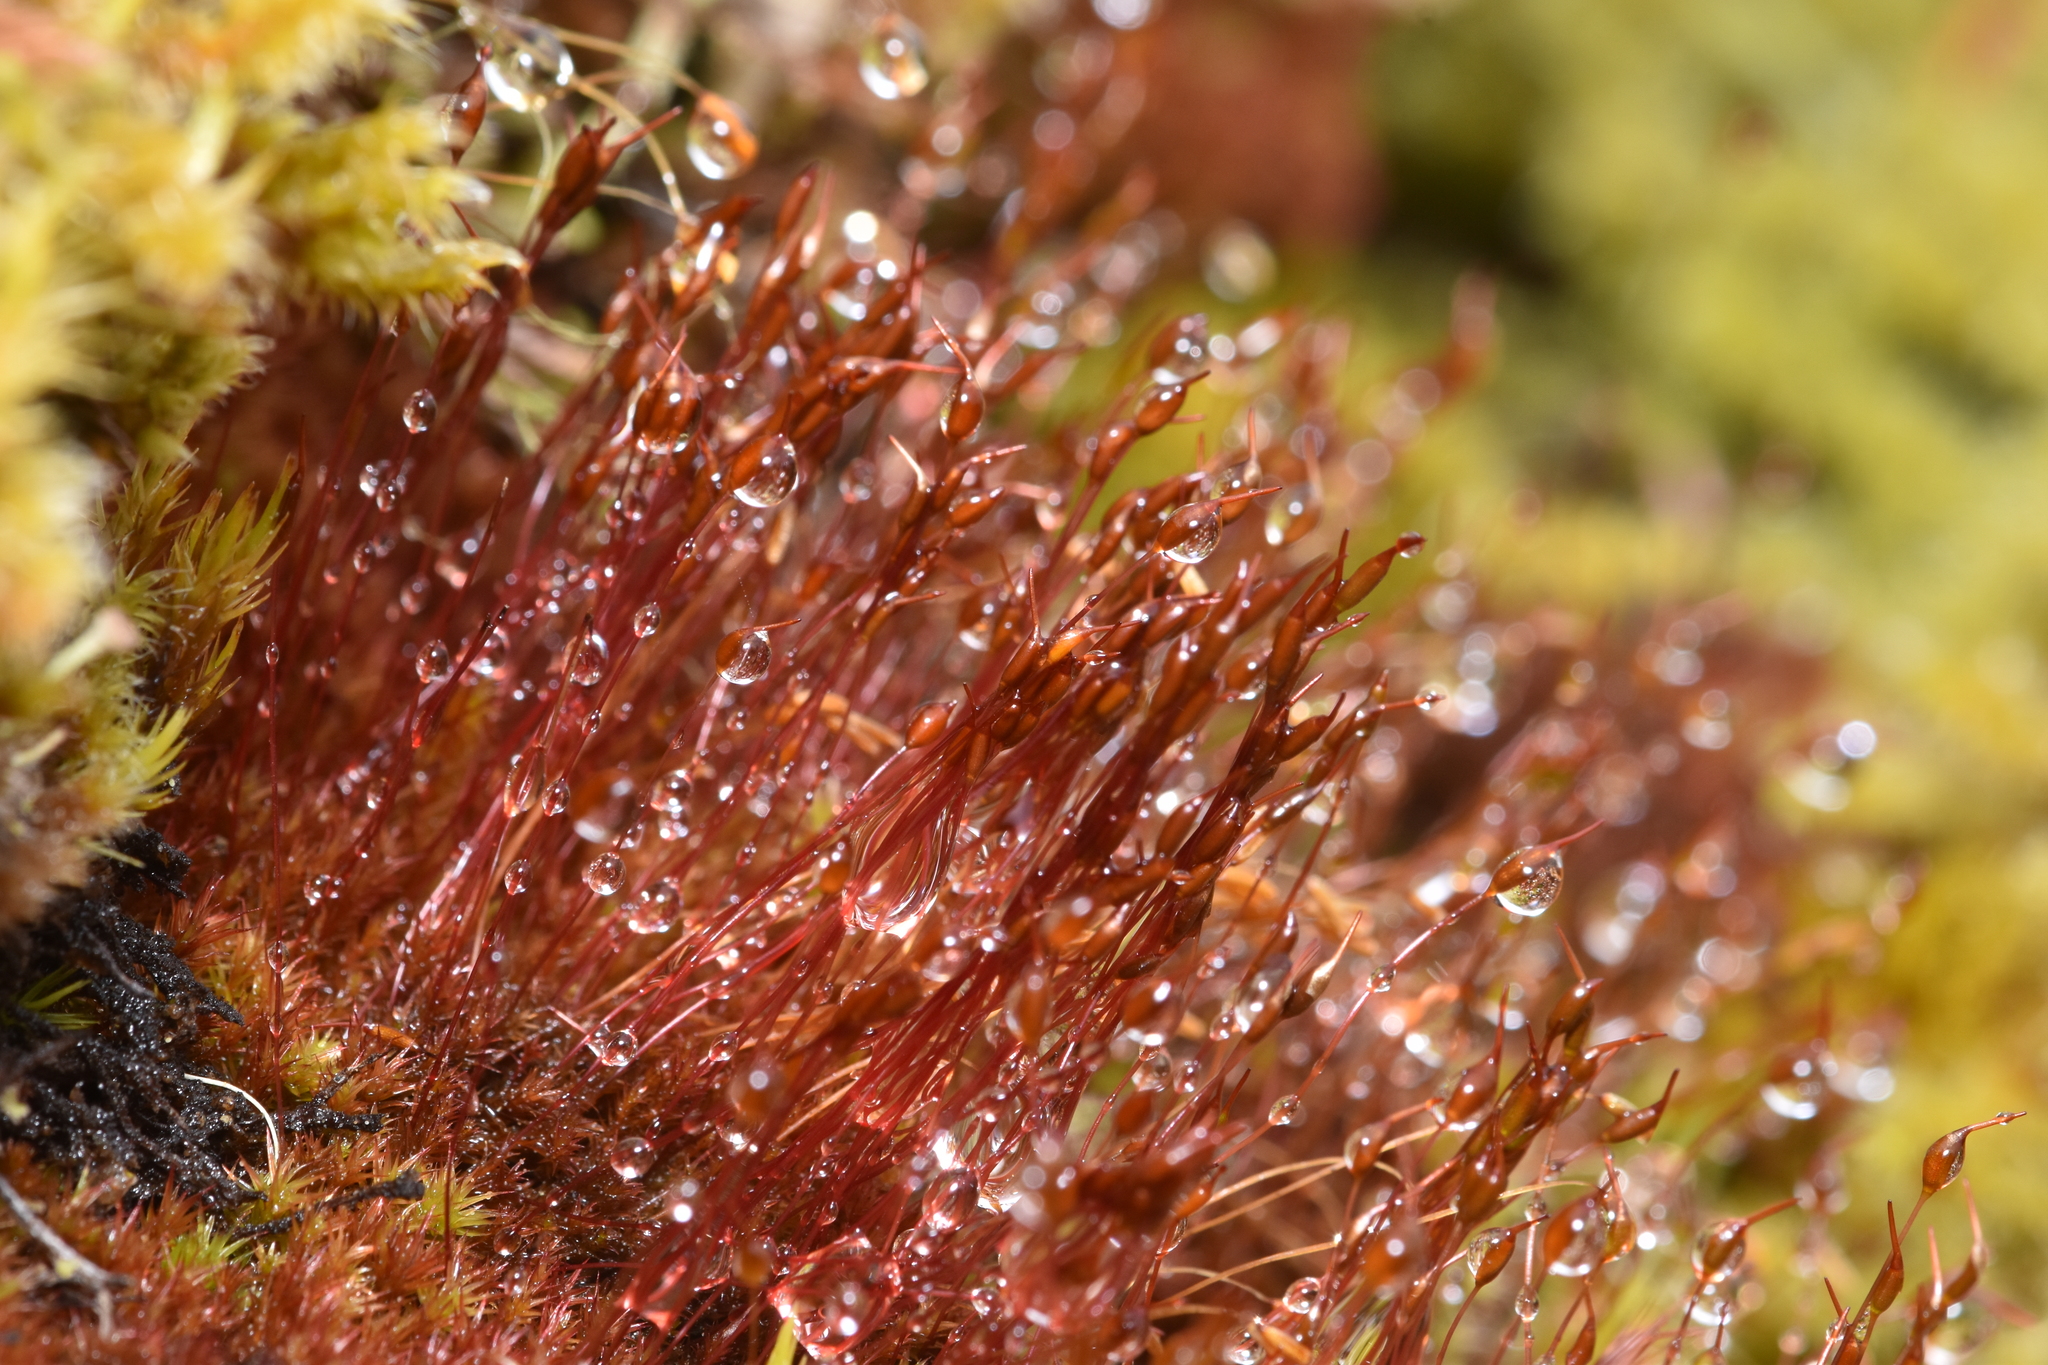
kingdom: Plantae
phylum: Bryophyta
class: Bryopsida
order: Dicranales
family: Ditrichaceae
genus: Ceratodon
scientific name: Ceratodon purpureus
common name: Redshank
